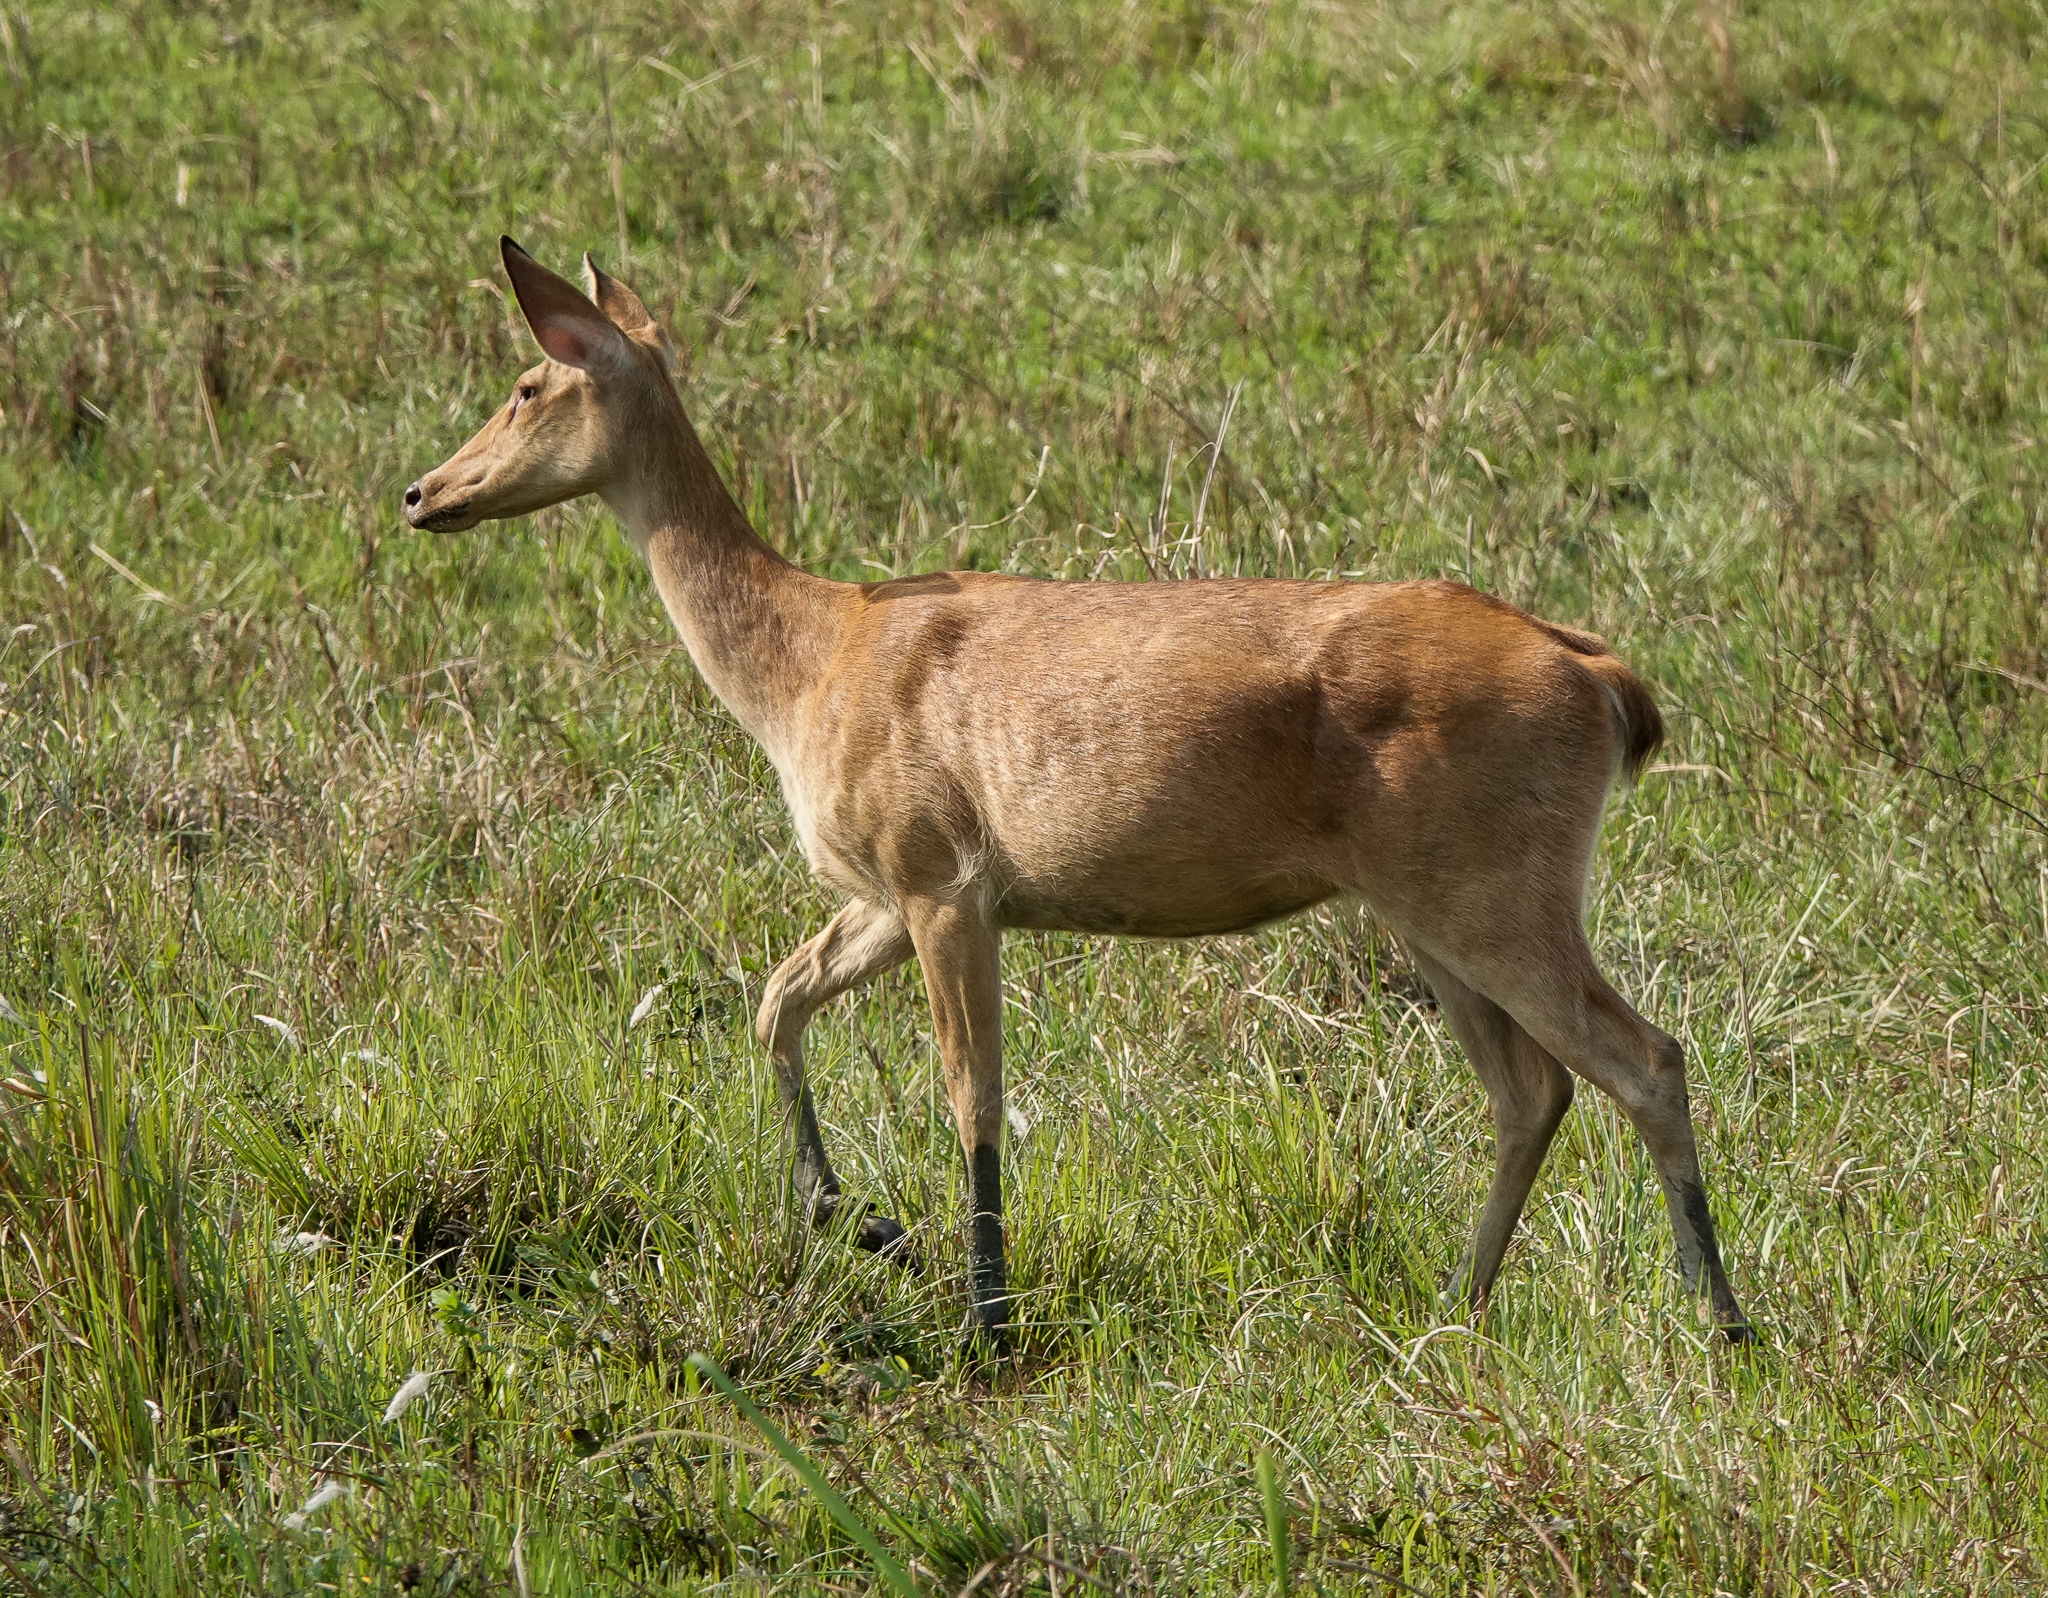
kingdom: Animalia
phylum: Chordata
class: Mammalia
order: Artiodactyla
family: Cervidae
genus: Rucervus
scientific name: Rucervus duvaucelii
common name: Barasingha
